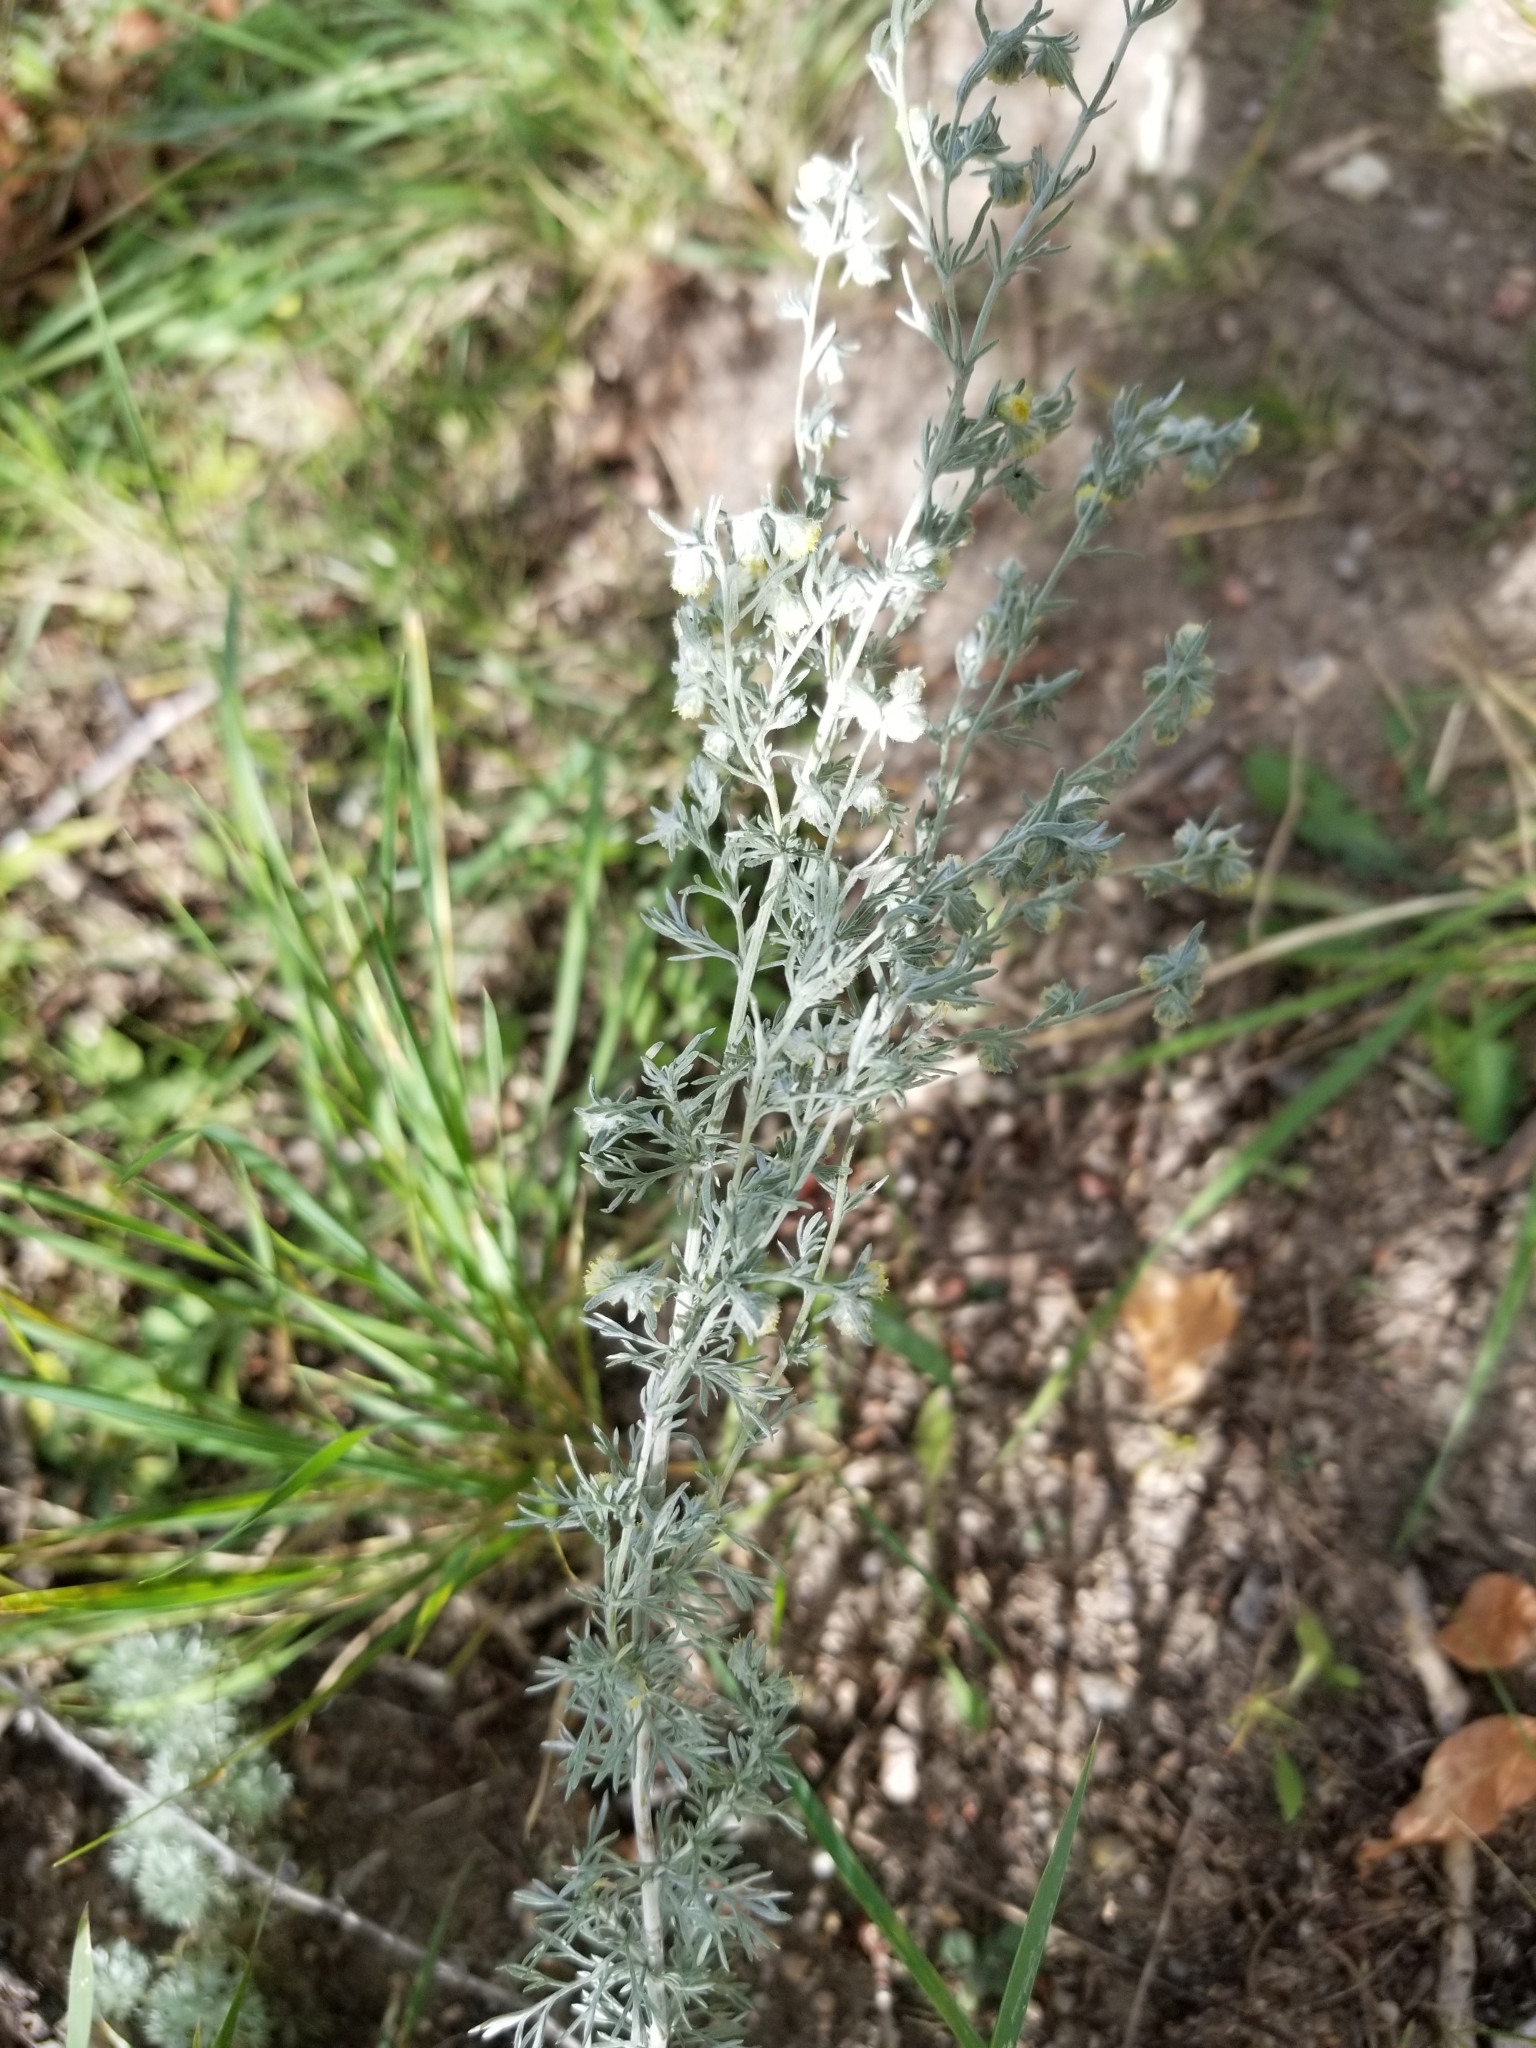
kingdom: Plantae
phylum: Tracheophyta
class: Magnoliopsida
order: Asterales
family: Asteraceae
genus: Artemisia
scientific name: Artemisia frigida
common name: Prairie sagewort
